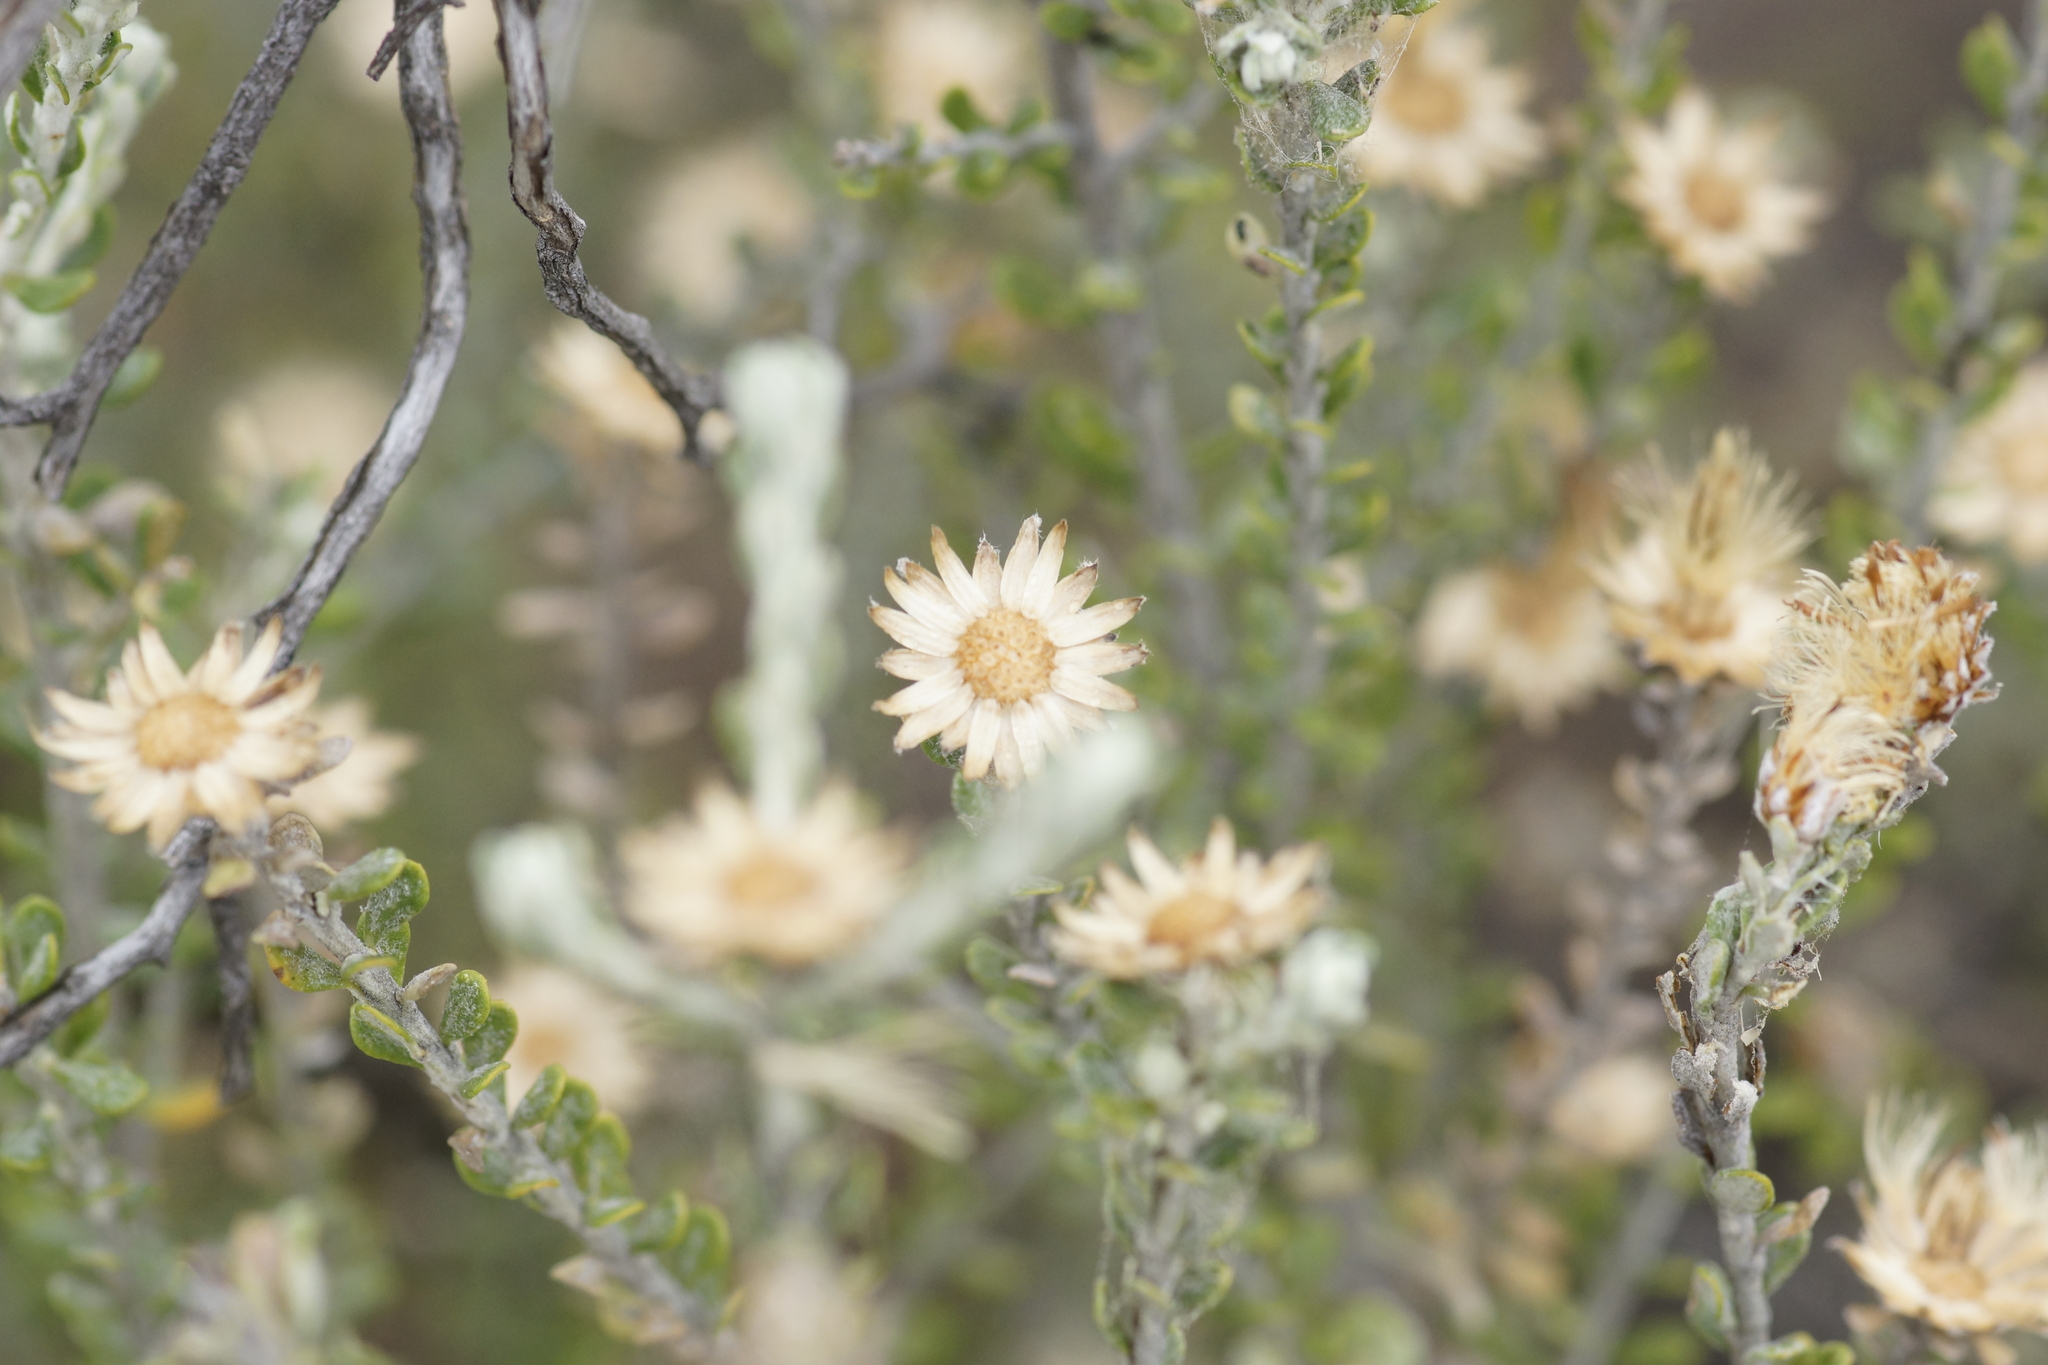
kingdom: Plantae
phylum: Tracheophyta
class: Magnoliopsida
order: Asterales
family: Asteraceae
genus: Olearia
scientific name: Olearia pimeleoides
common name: Showy daisybush
